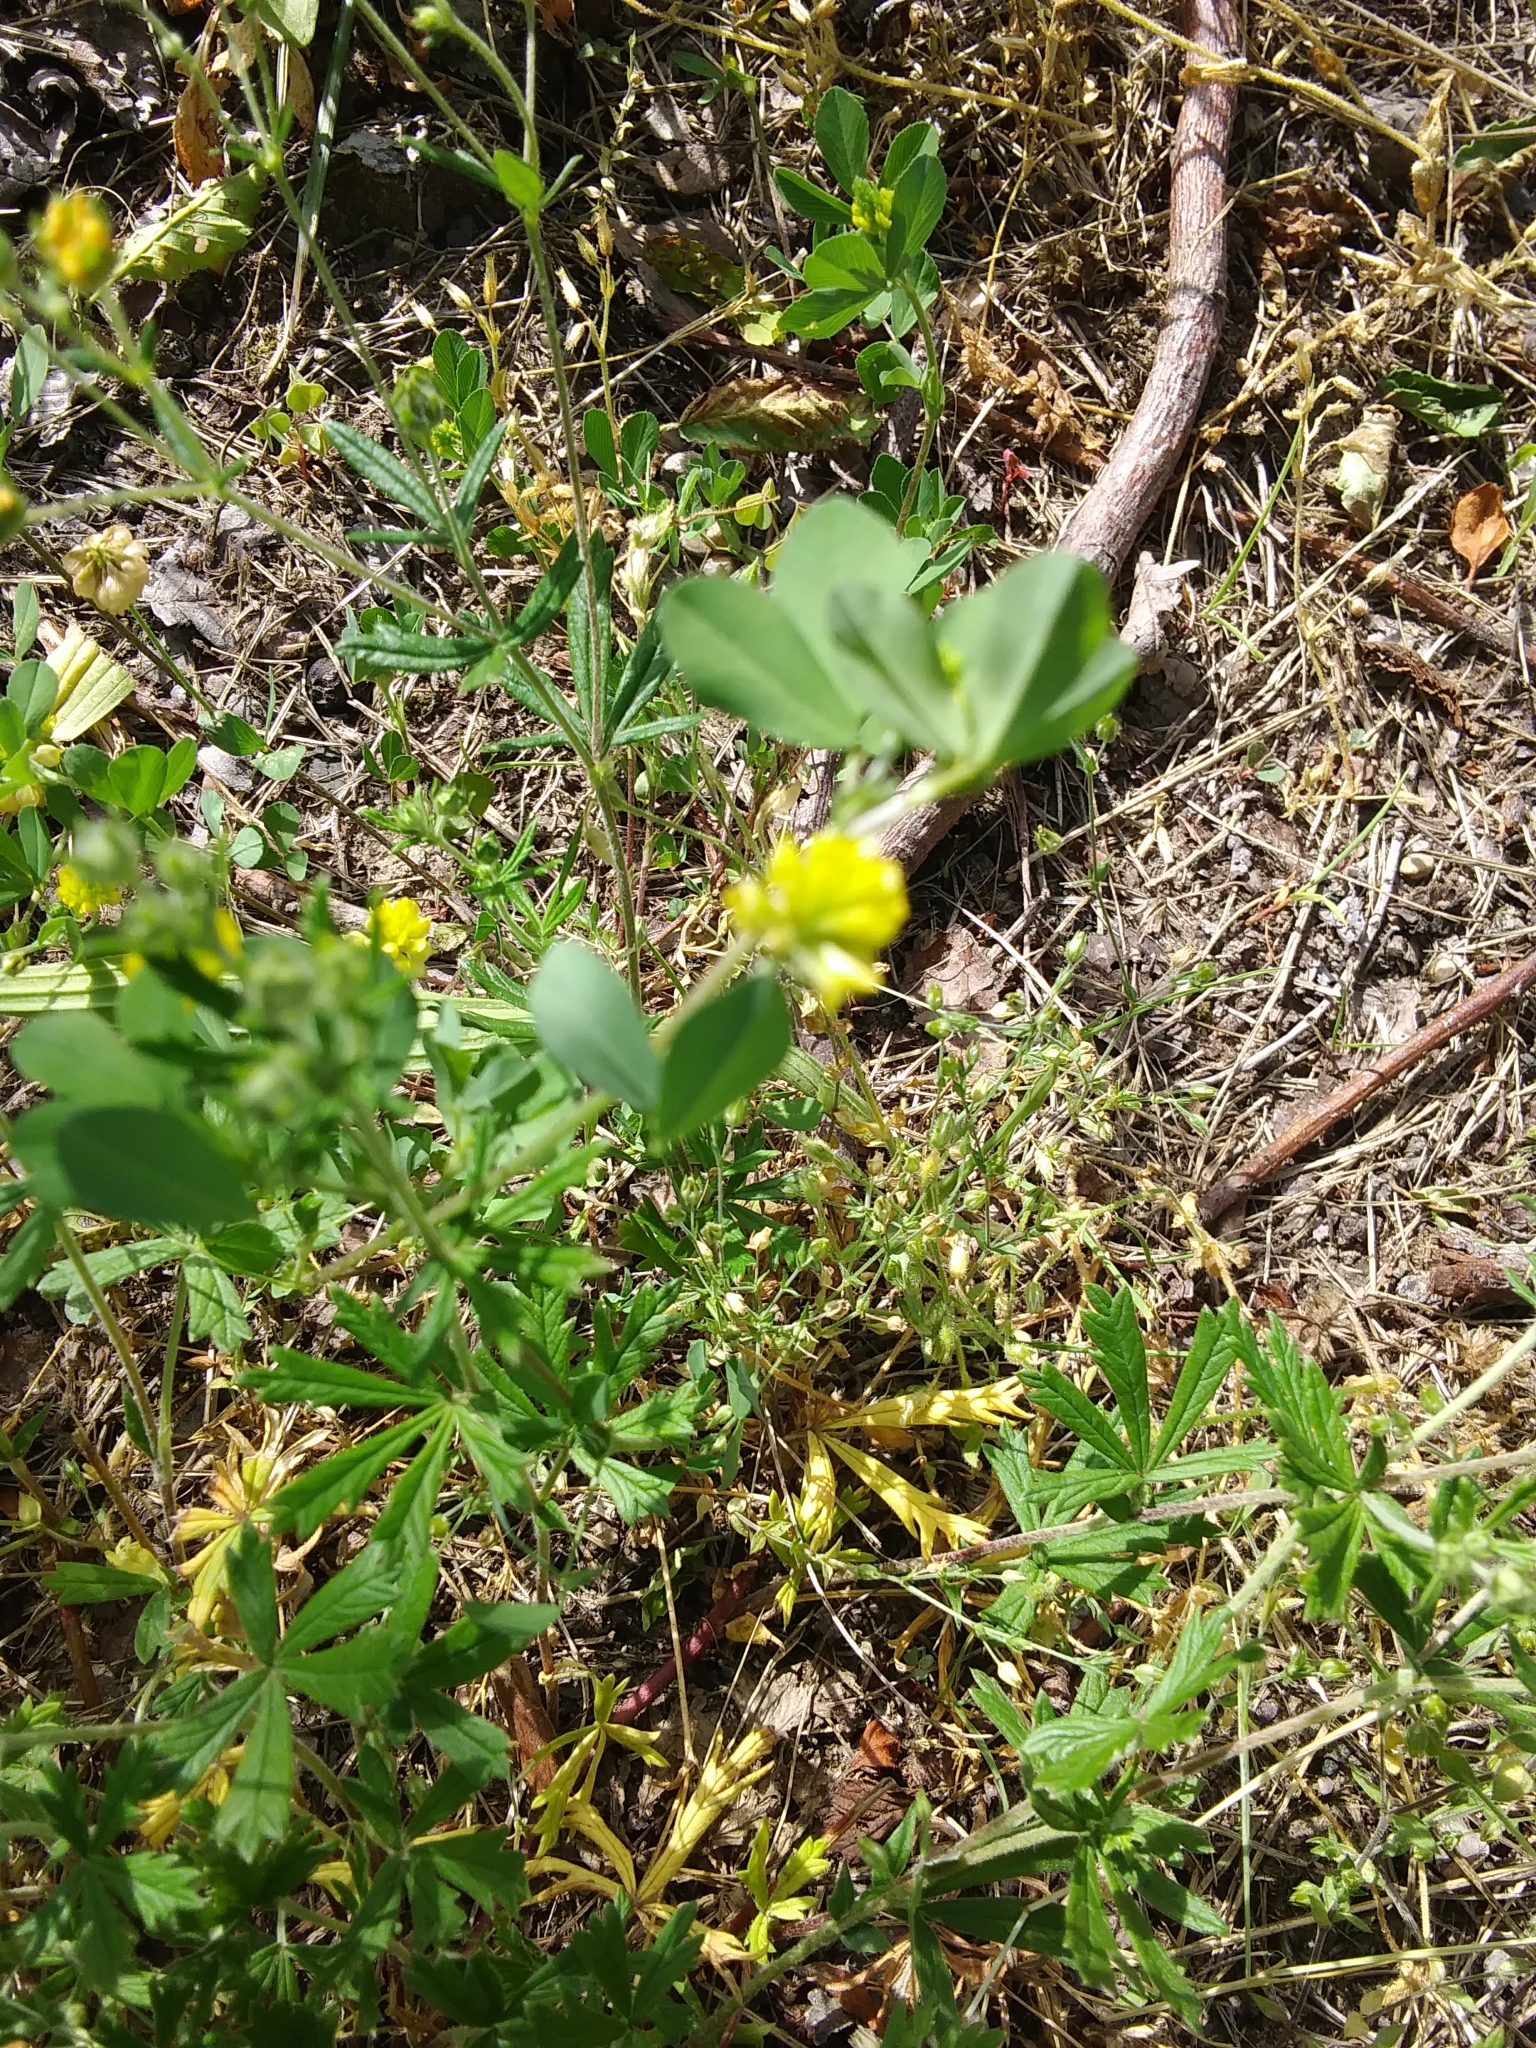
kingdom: Plantae
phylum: Tracheophyta
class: Magnoliopsida
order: Fabales
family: Fabaceae
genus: Medicago
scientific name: Medicago lupulina
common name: Black medick
